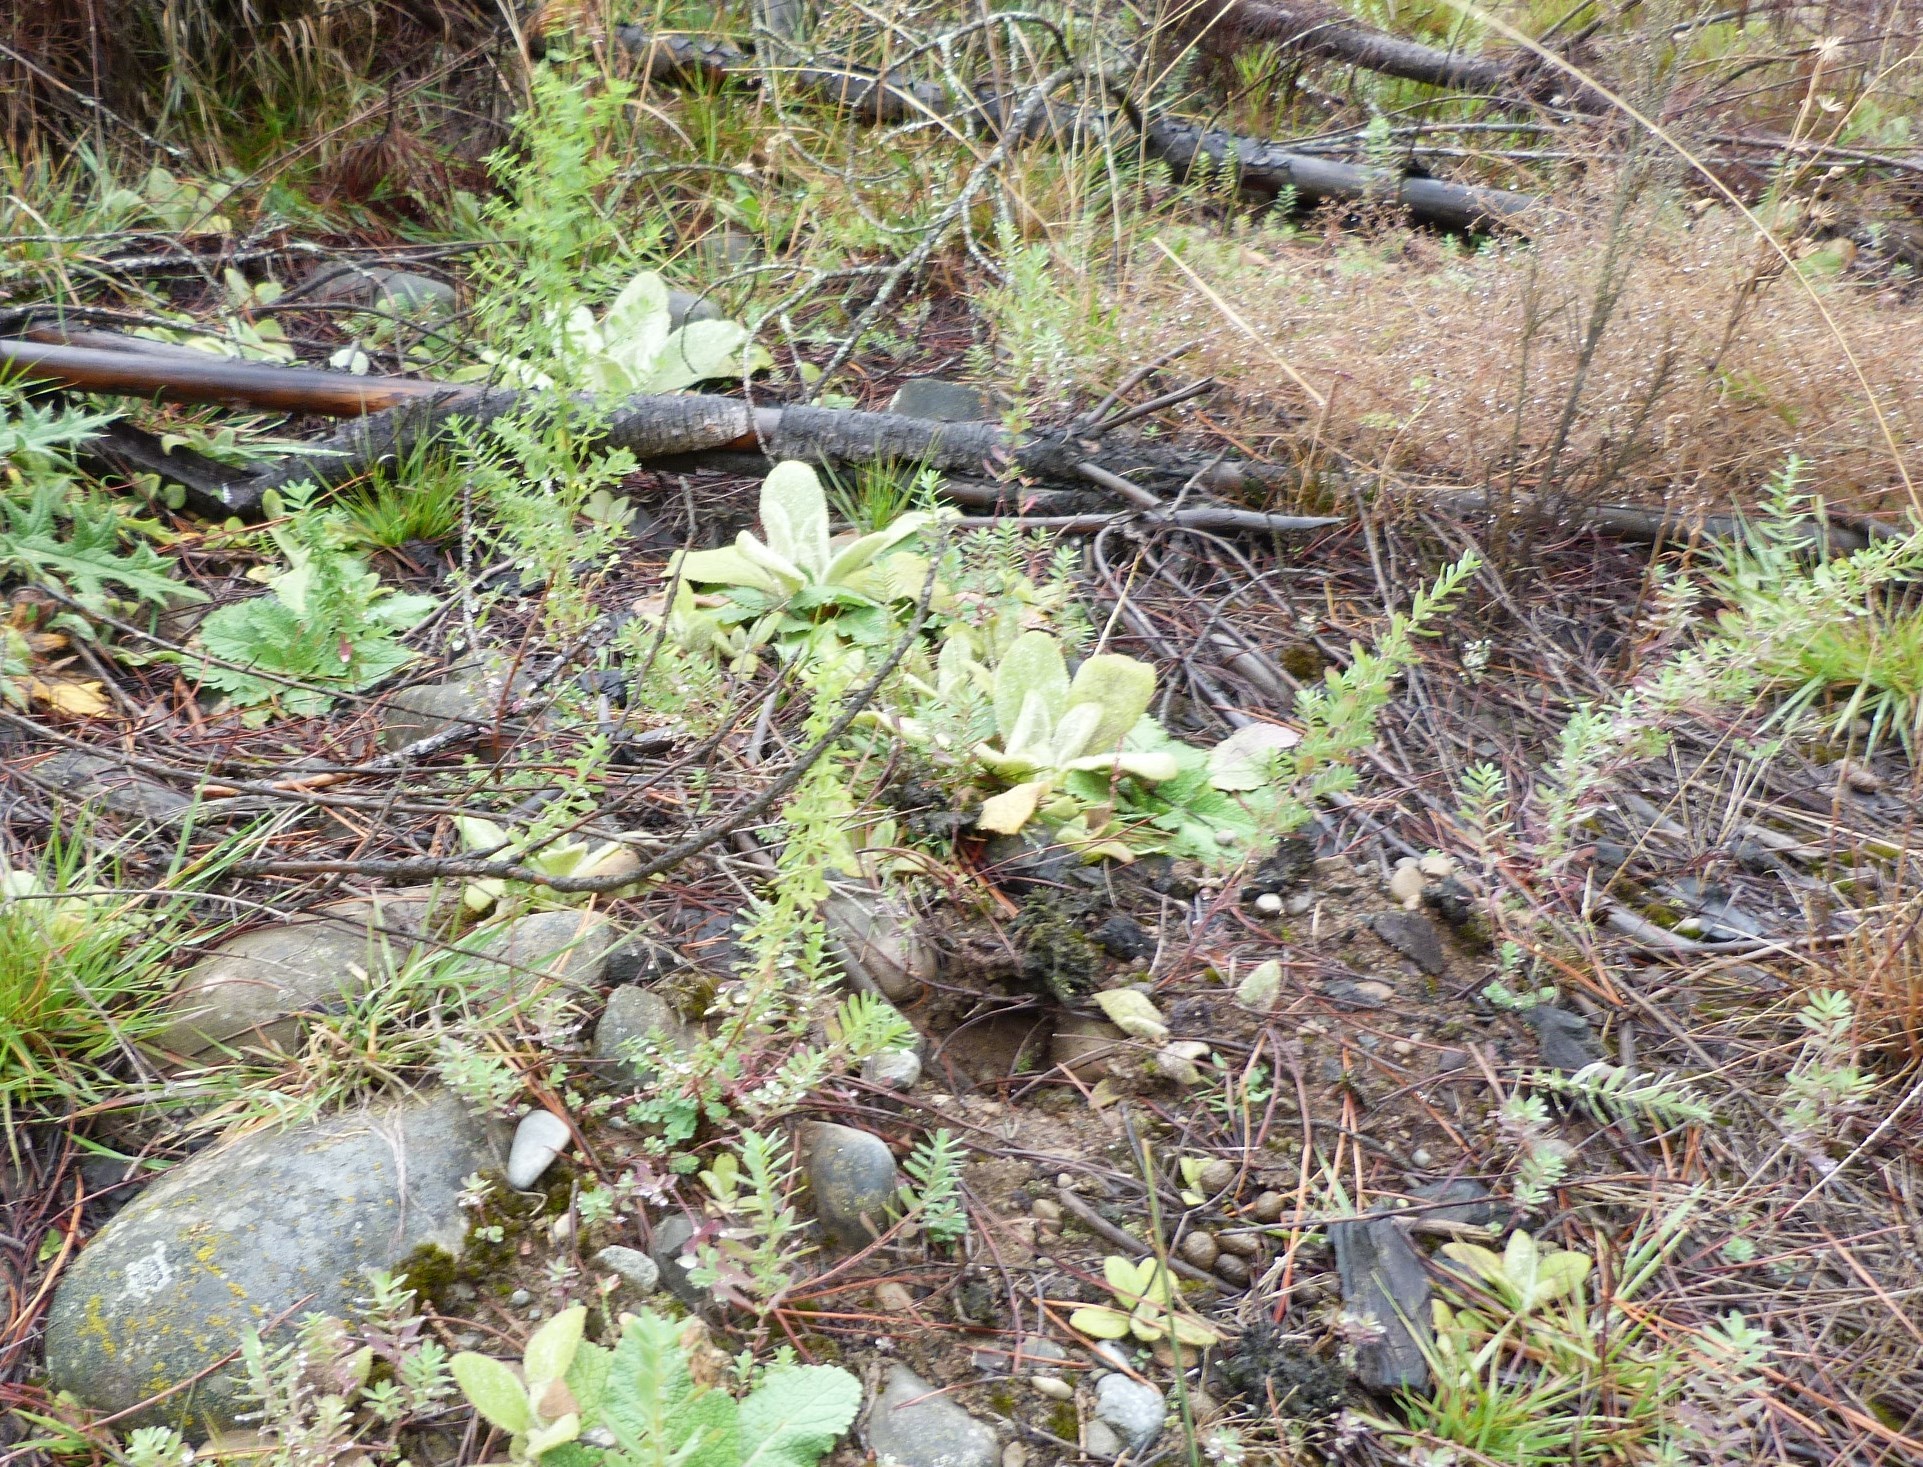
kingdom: Plantae
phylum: Tracheophyta
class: Magnoliopsida
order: Malpighiales
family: Hypericaceae
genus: Hypericum
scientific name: Hypericum perforatum
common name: Common st. johnswort
